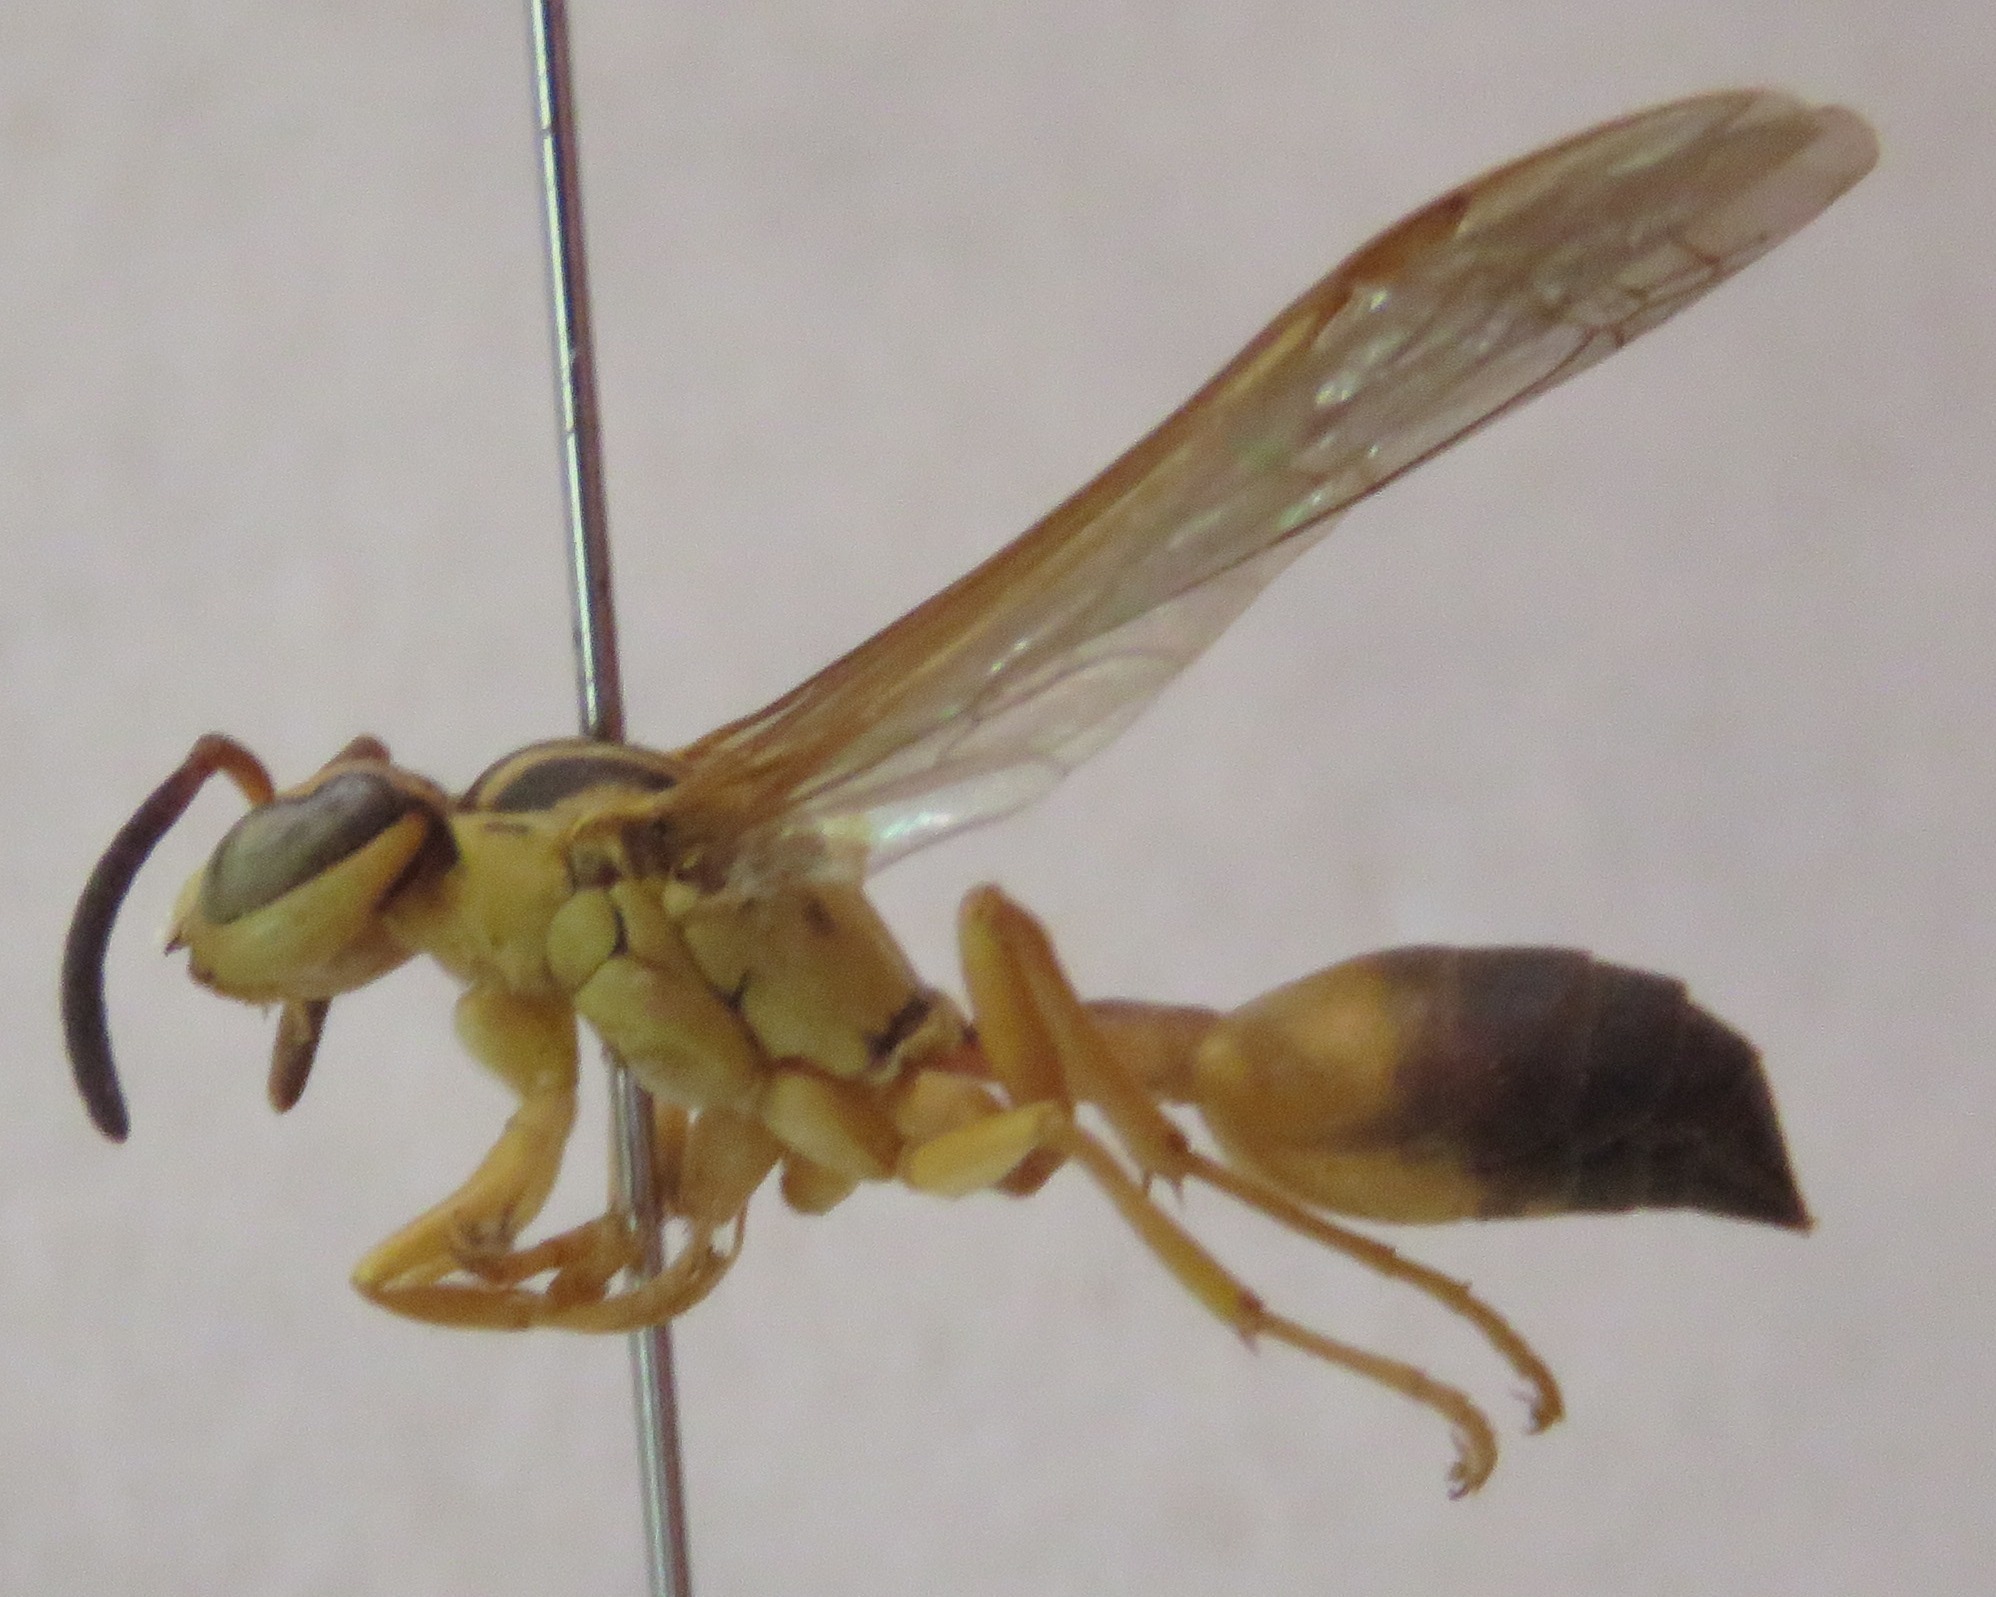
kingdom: Animalia
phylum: Arthropoda
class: Insecta
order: Hymenoptera
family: Vespidae
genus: Agelaia
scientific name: Agelaia pallipes
